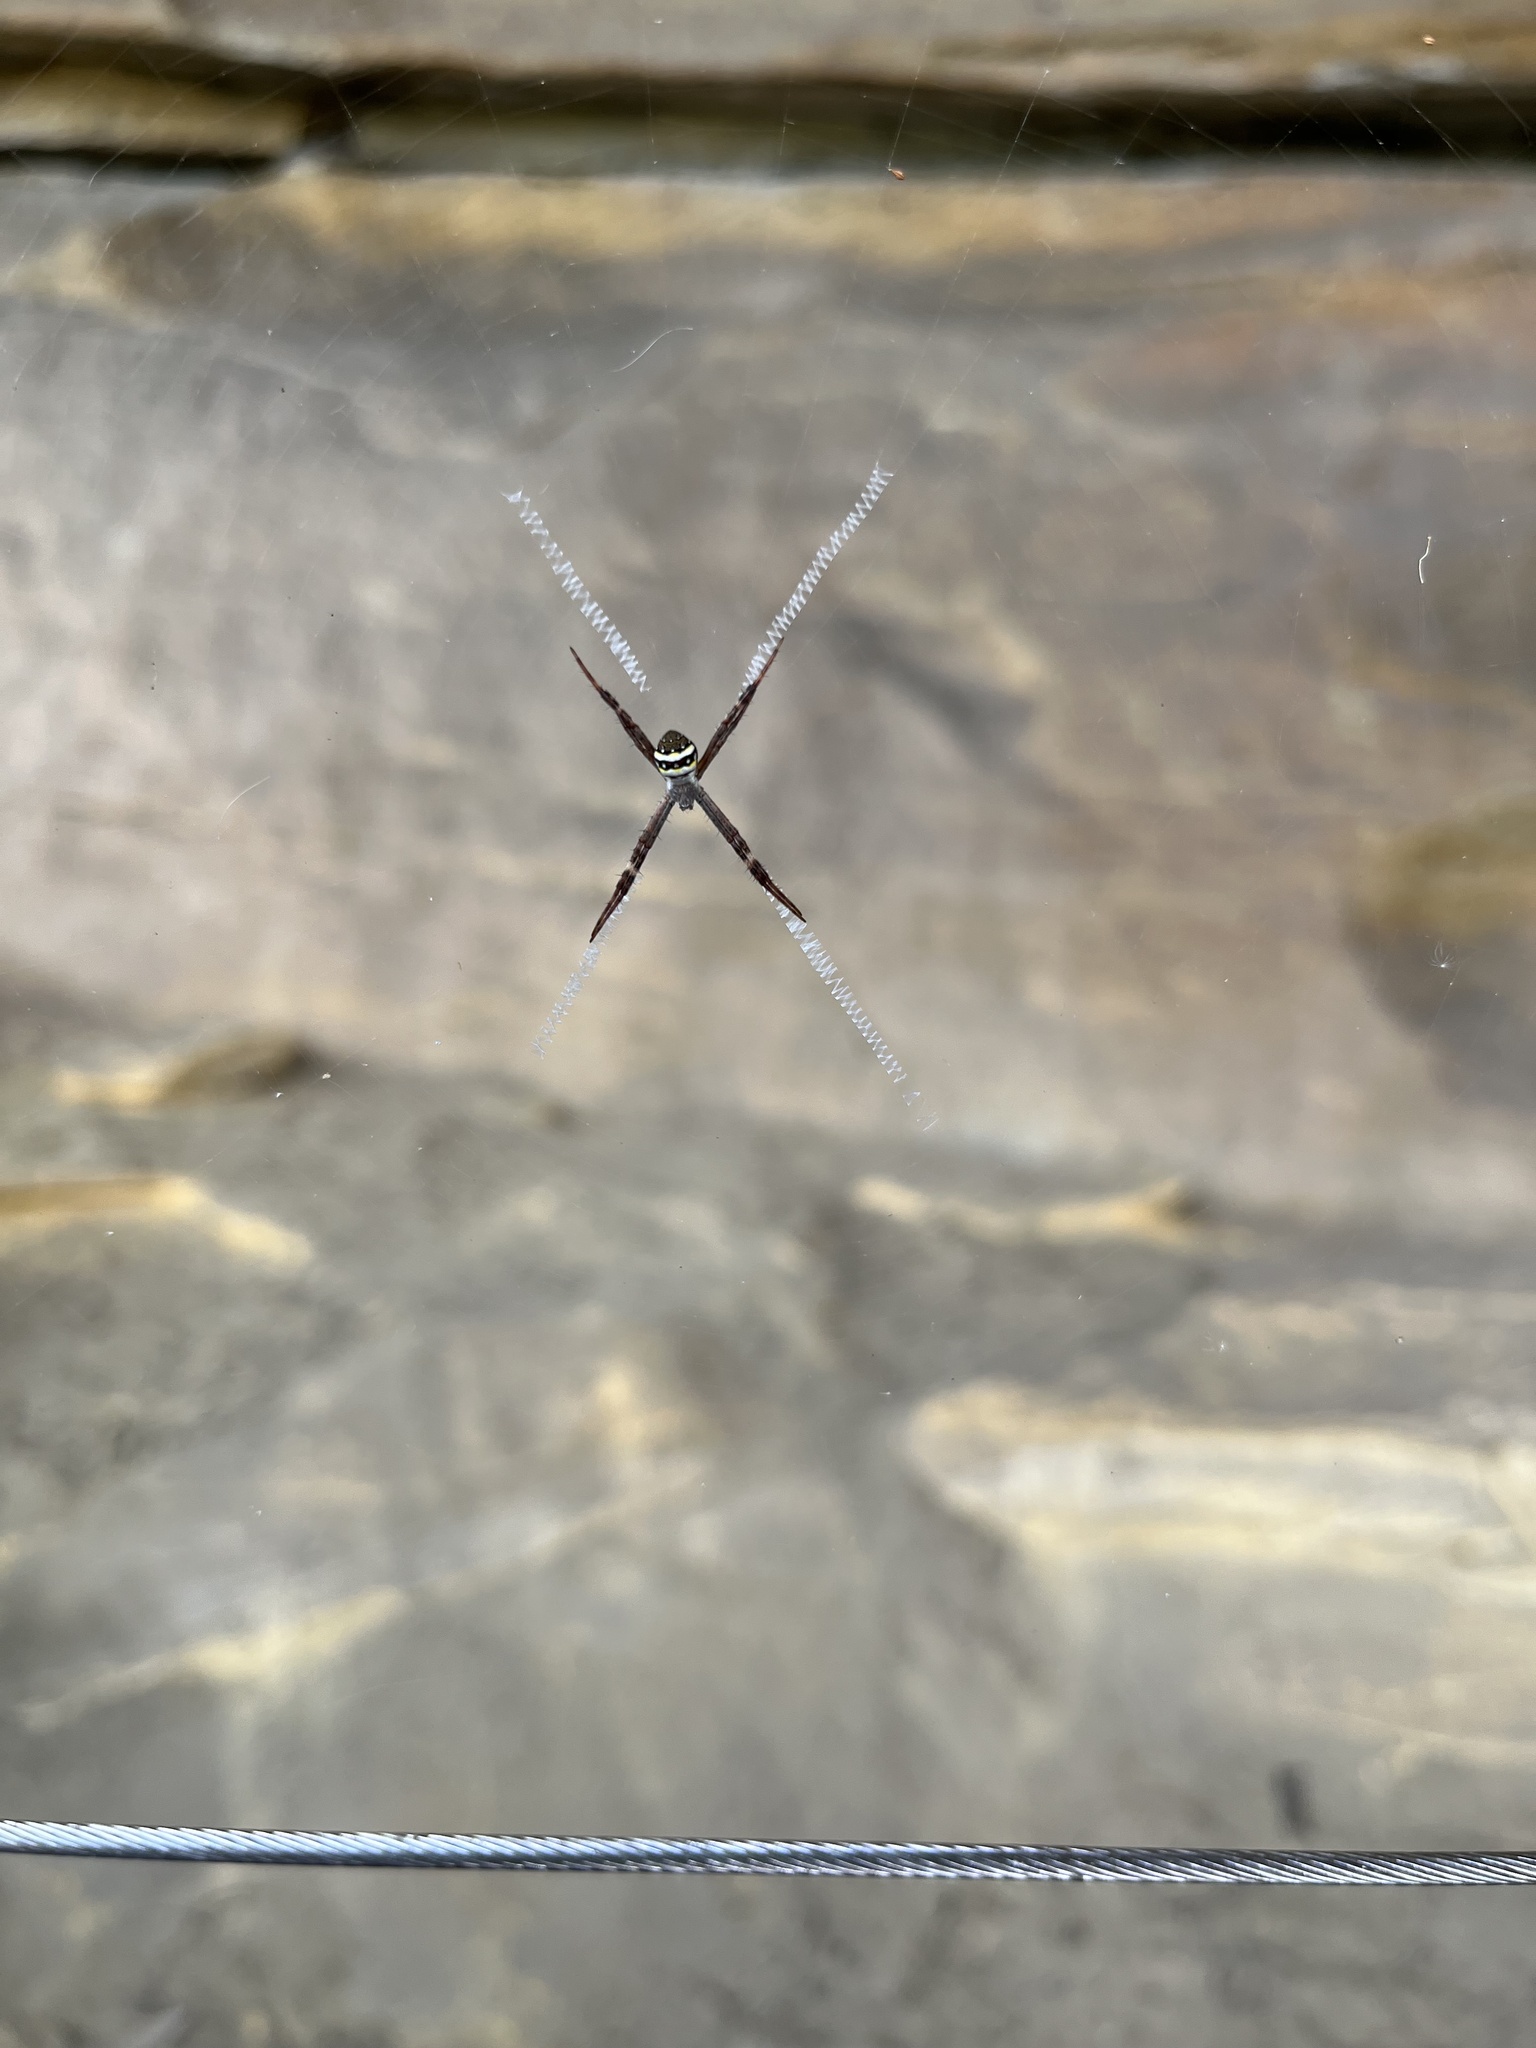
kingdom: Animalia
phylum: Arthropoda
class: Arachnida
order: Araneae
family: Araneidae
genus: Argiope
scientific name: Argiope keyserlingi
